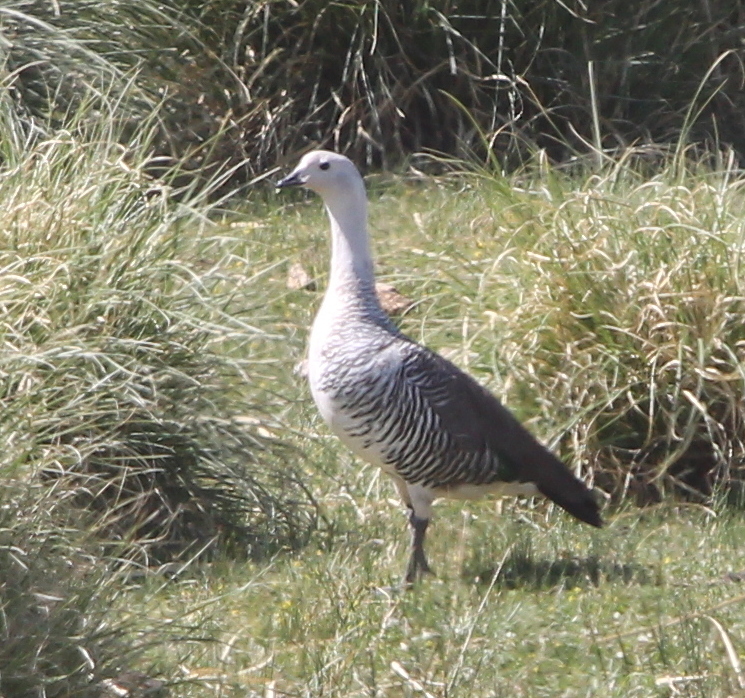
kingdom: Animalia
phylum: Chordata
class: Aves
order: Anseriformes
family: Anatidae
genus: Chloephaga
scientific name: Chloephaga picta
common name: Upland goose
